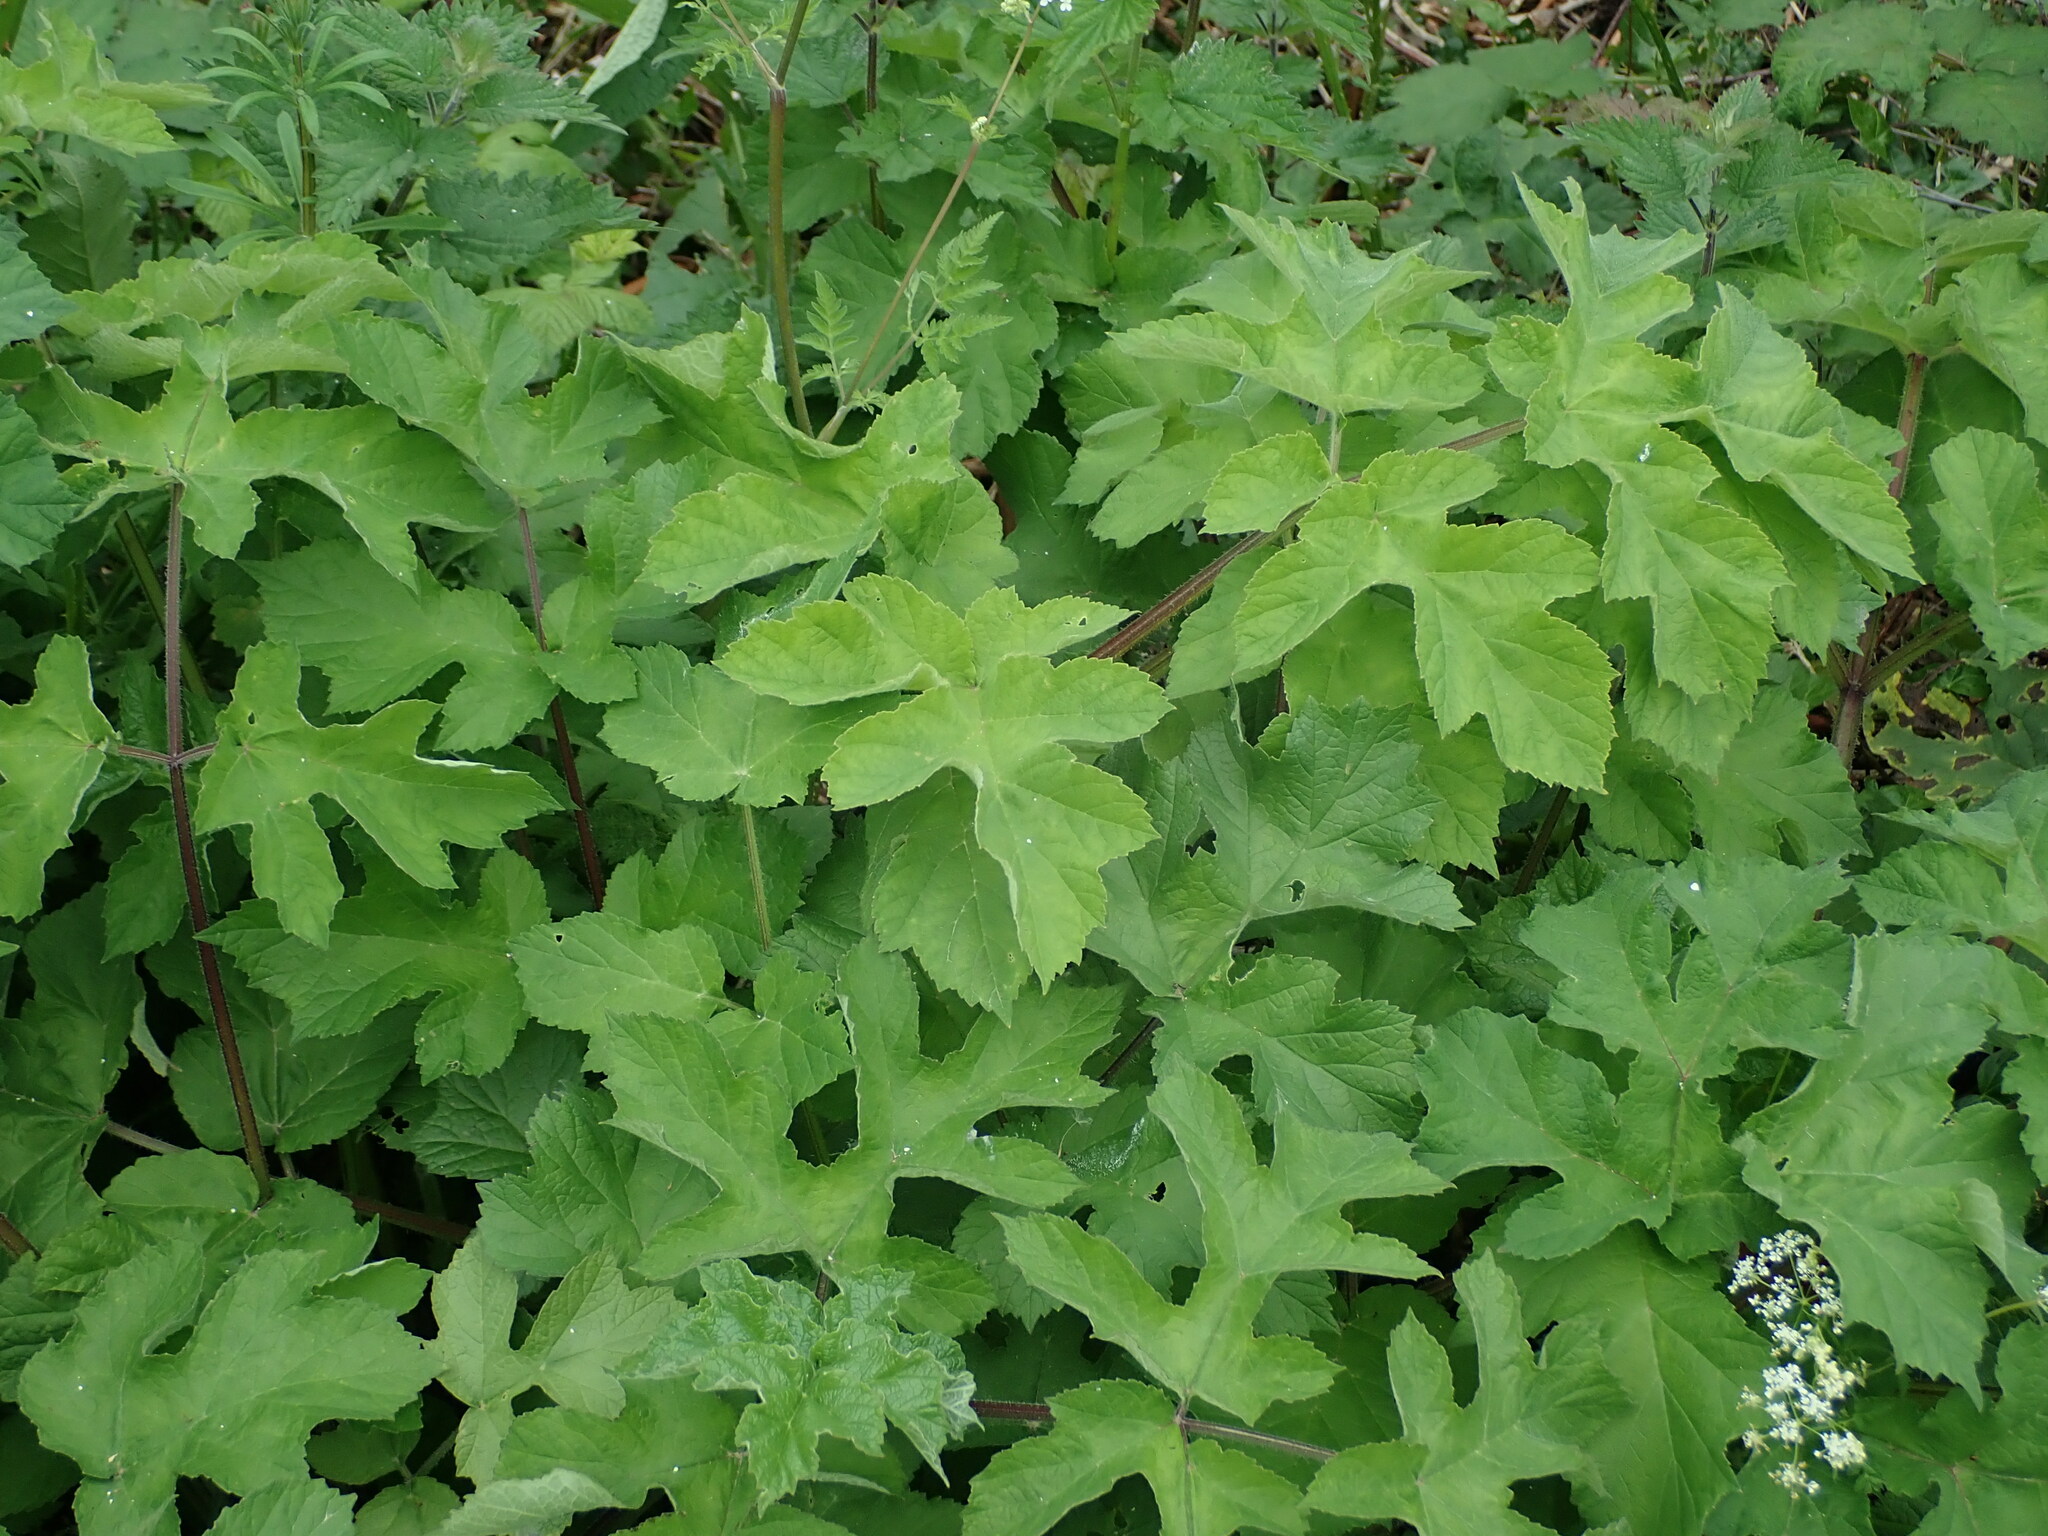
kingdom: Plantae
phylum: Tracheophyta
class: Magnoliopsida
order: Apiales
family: Apiaceae
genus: Heracleum
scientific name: Heracleum sphondylium
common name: Hogweed
